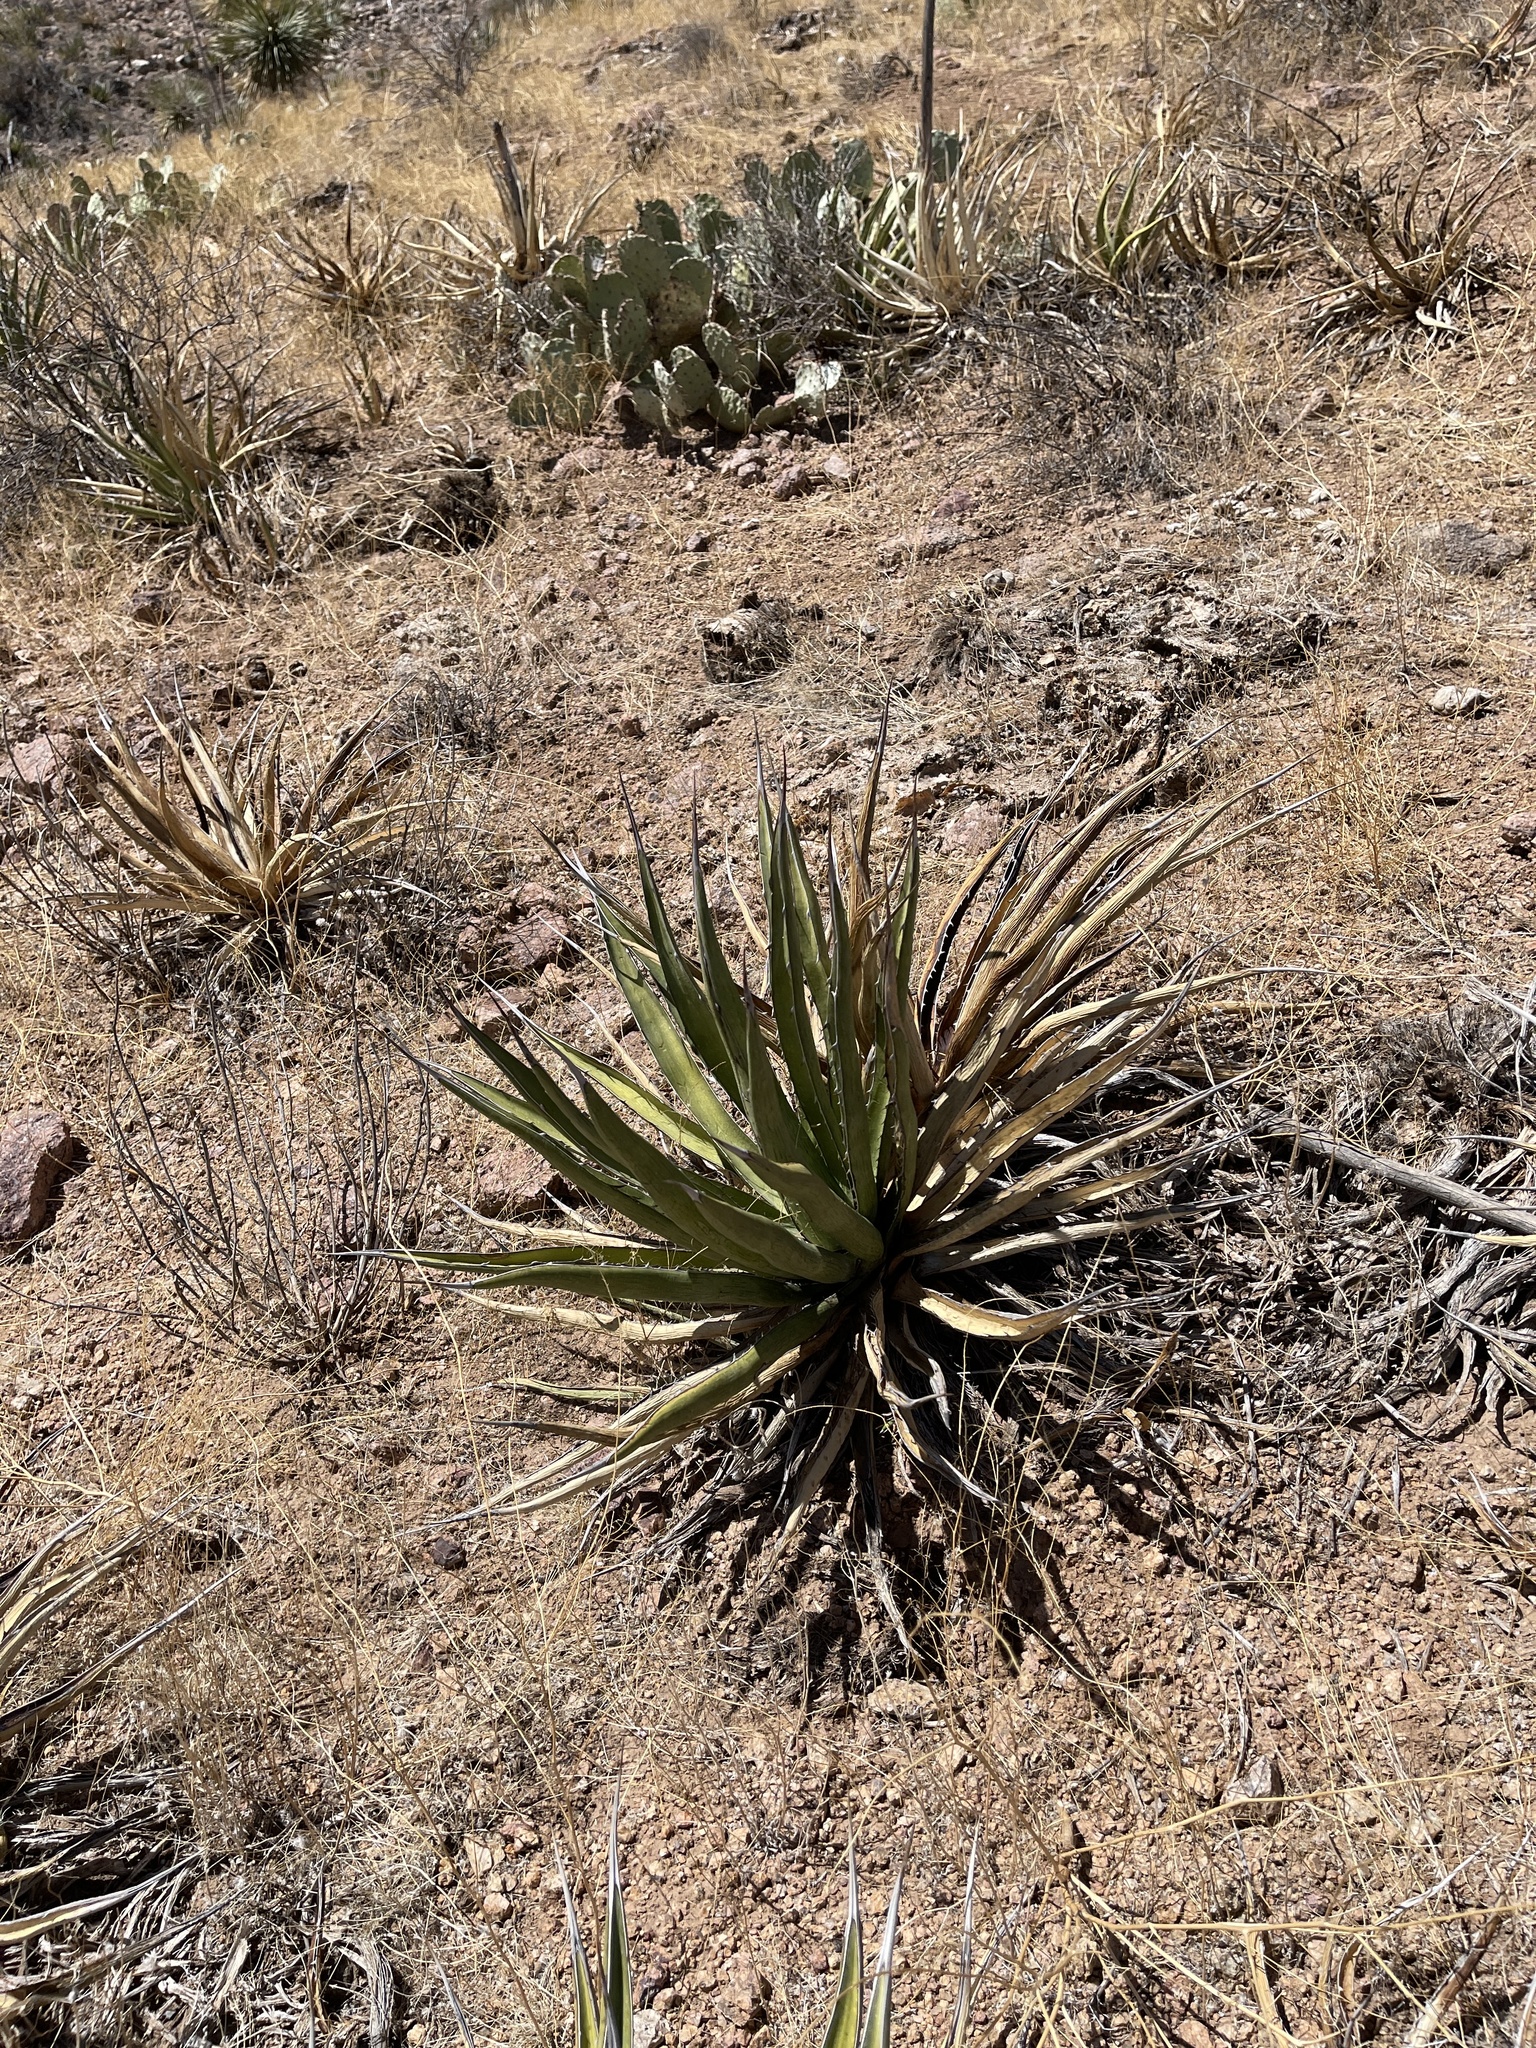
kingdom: Plantae
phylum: Tracheophyta
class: Liliopsida
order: Asparagales
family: Asparagaceae
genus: Agave
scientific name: Agave lechuguilla
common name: Lecheguilla agave
